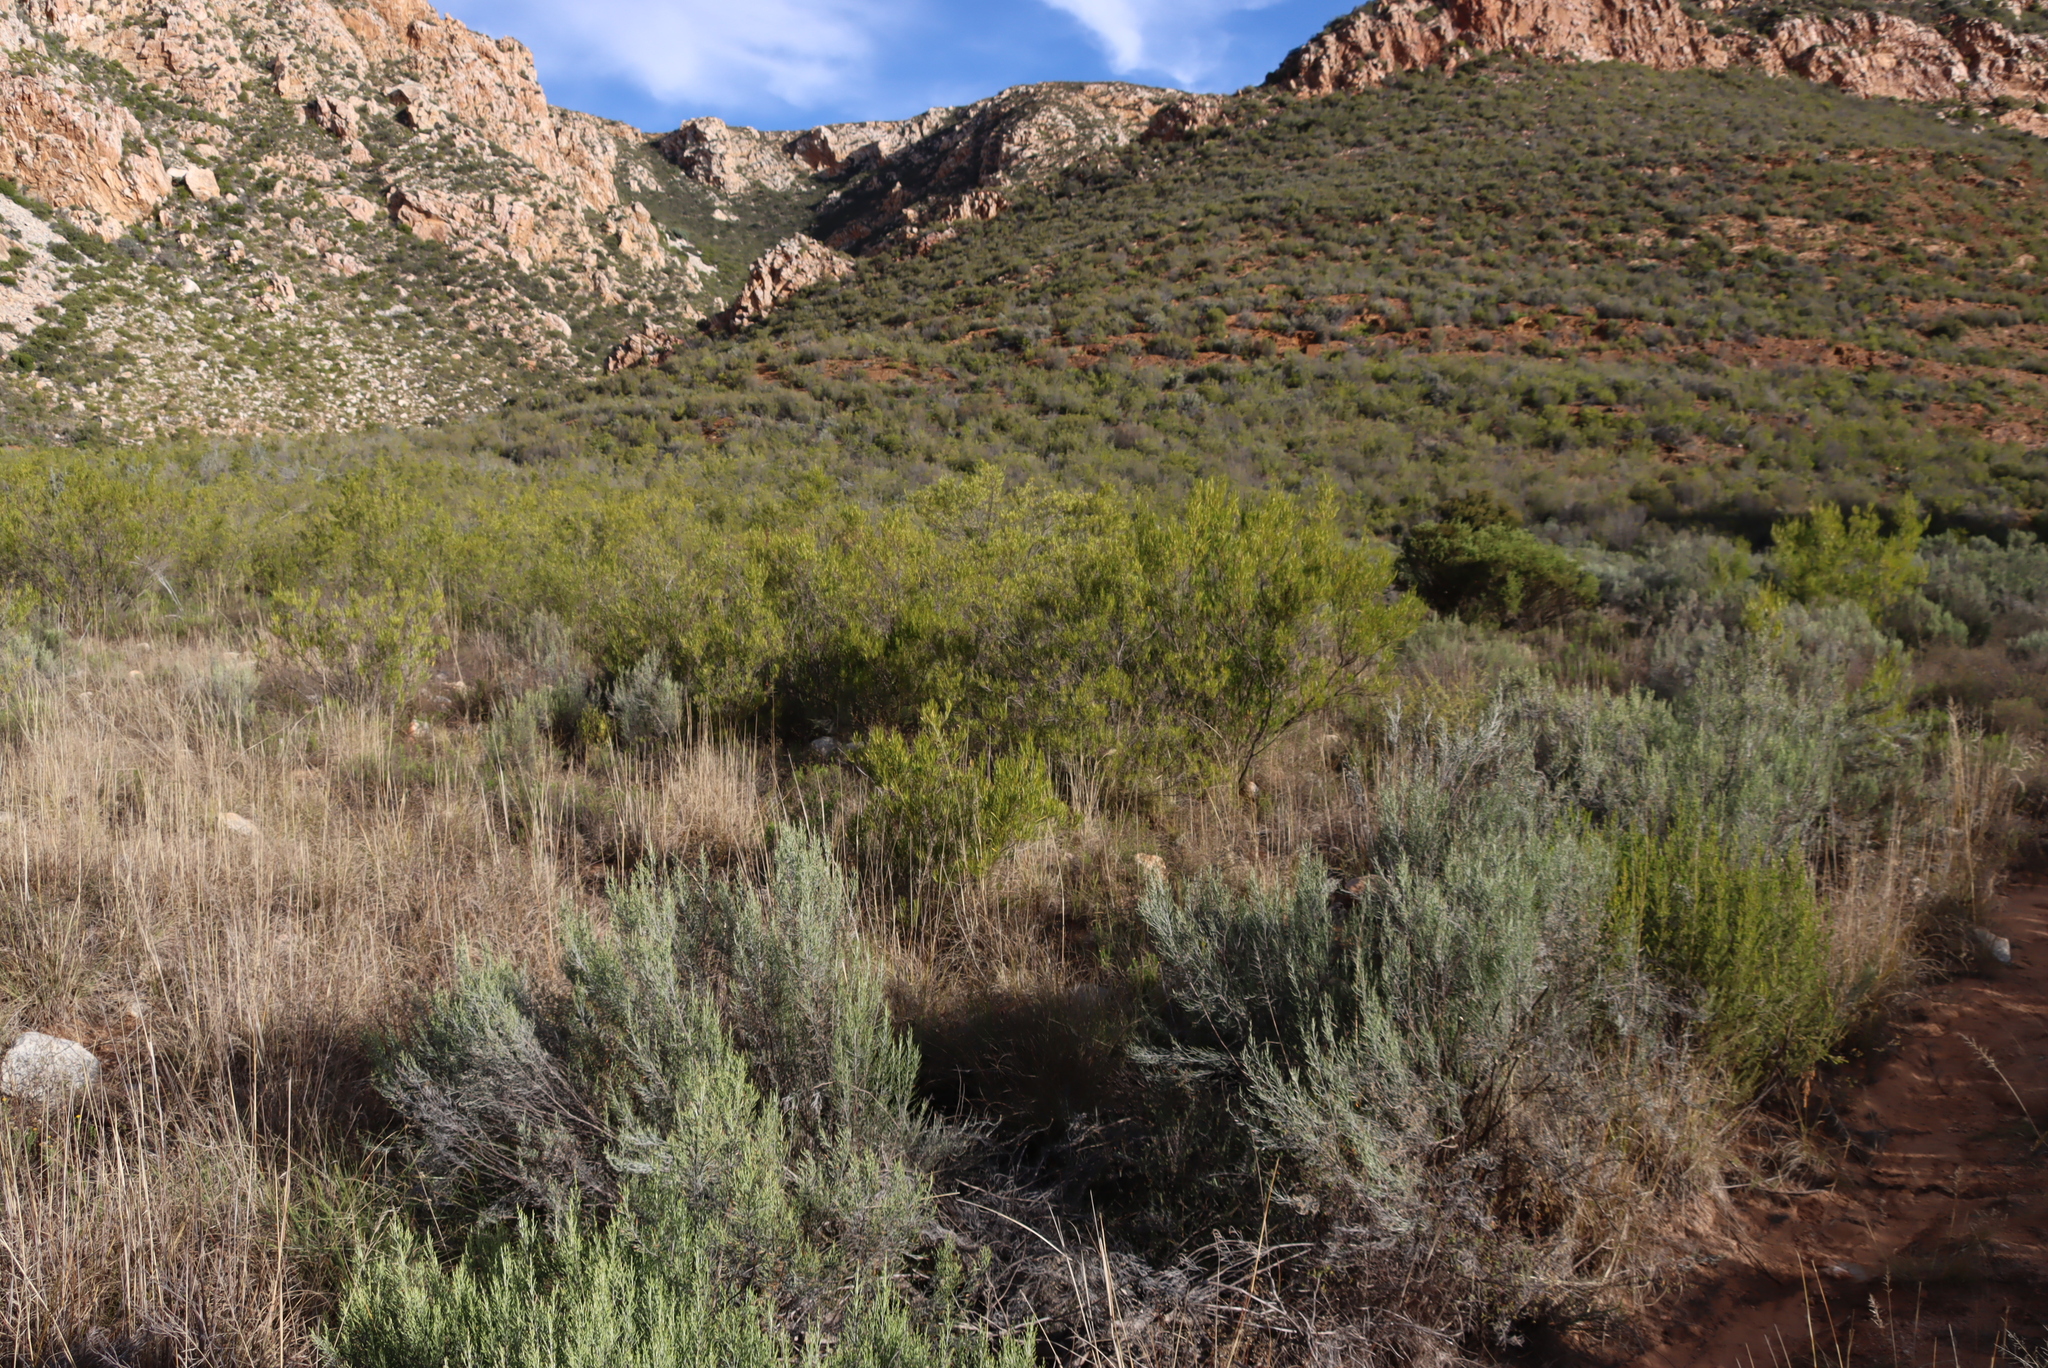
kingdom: Plantae
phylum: Tracheophyta
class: Magnoliopsida
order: Sapindales
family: Sapindaceae
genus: Dodonaea
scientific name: Dodonaea viscosa
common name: Hopbush
